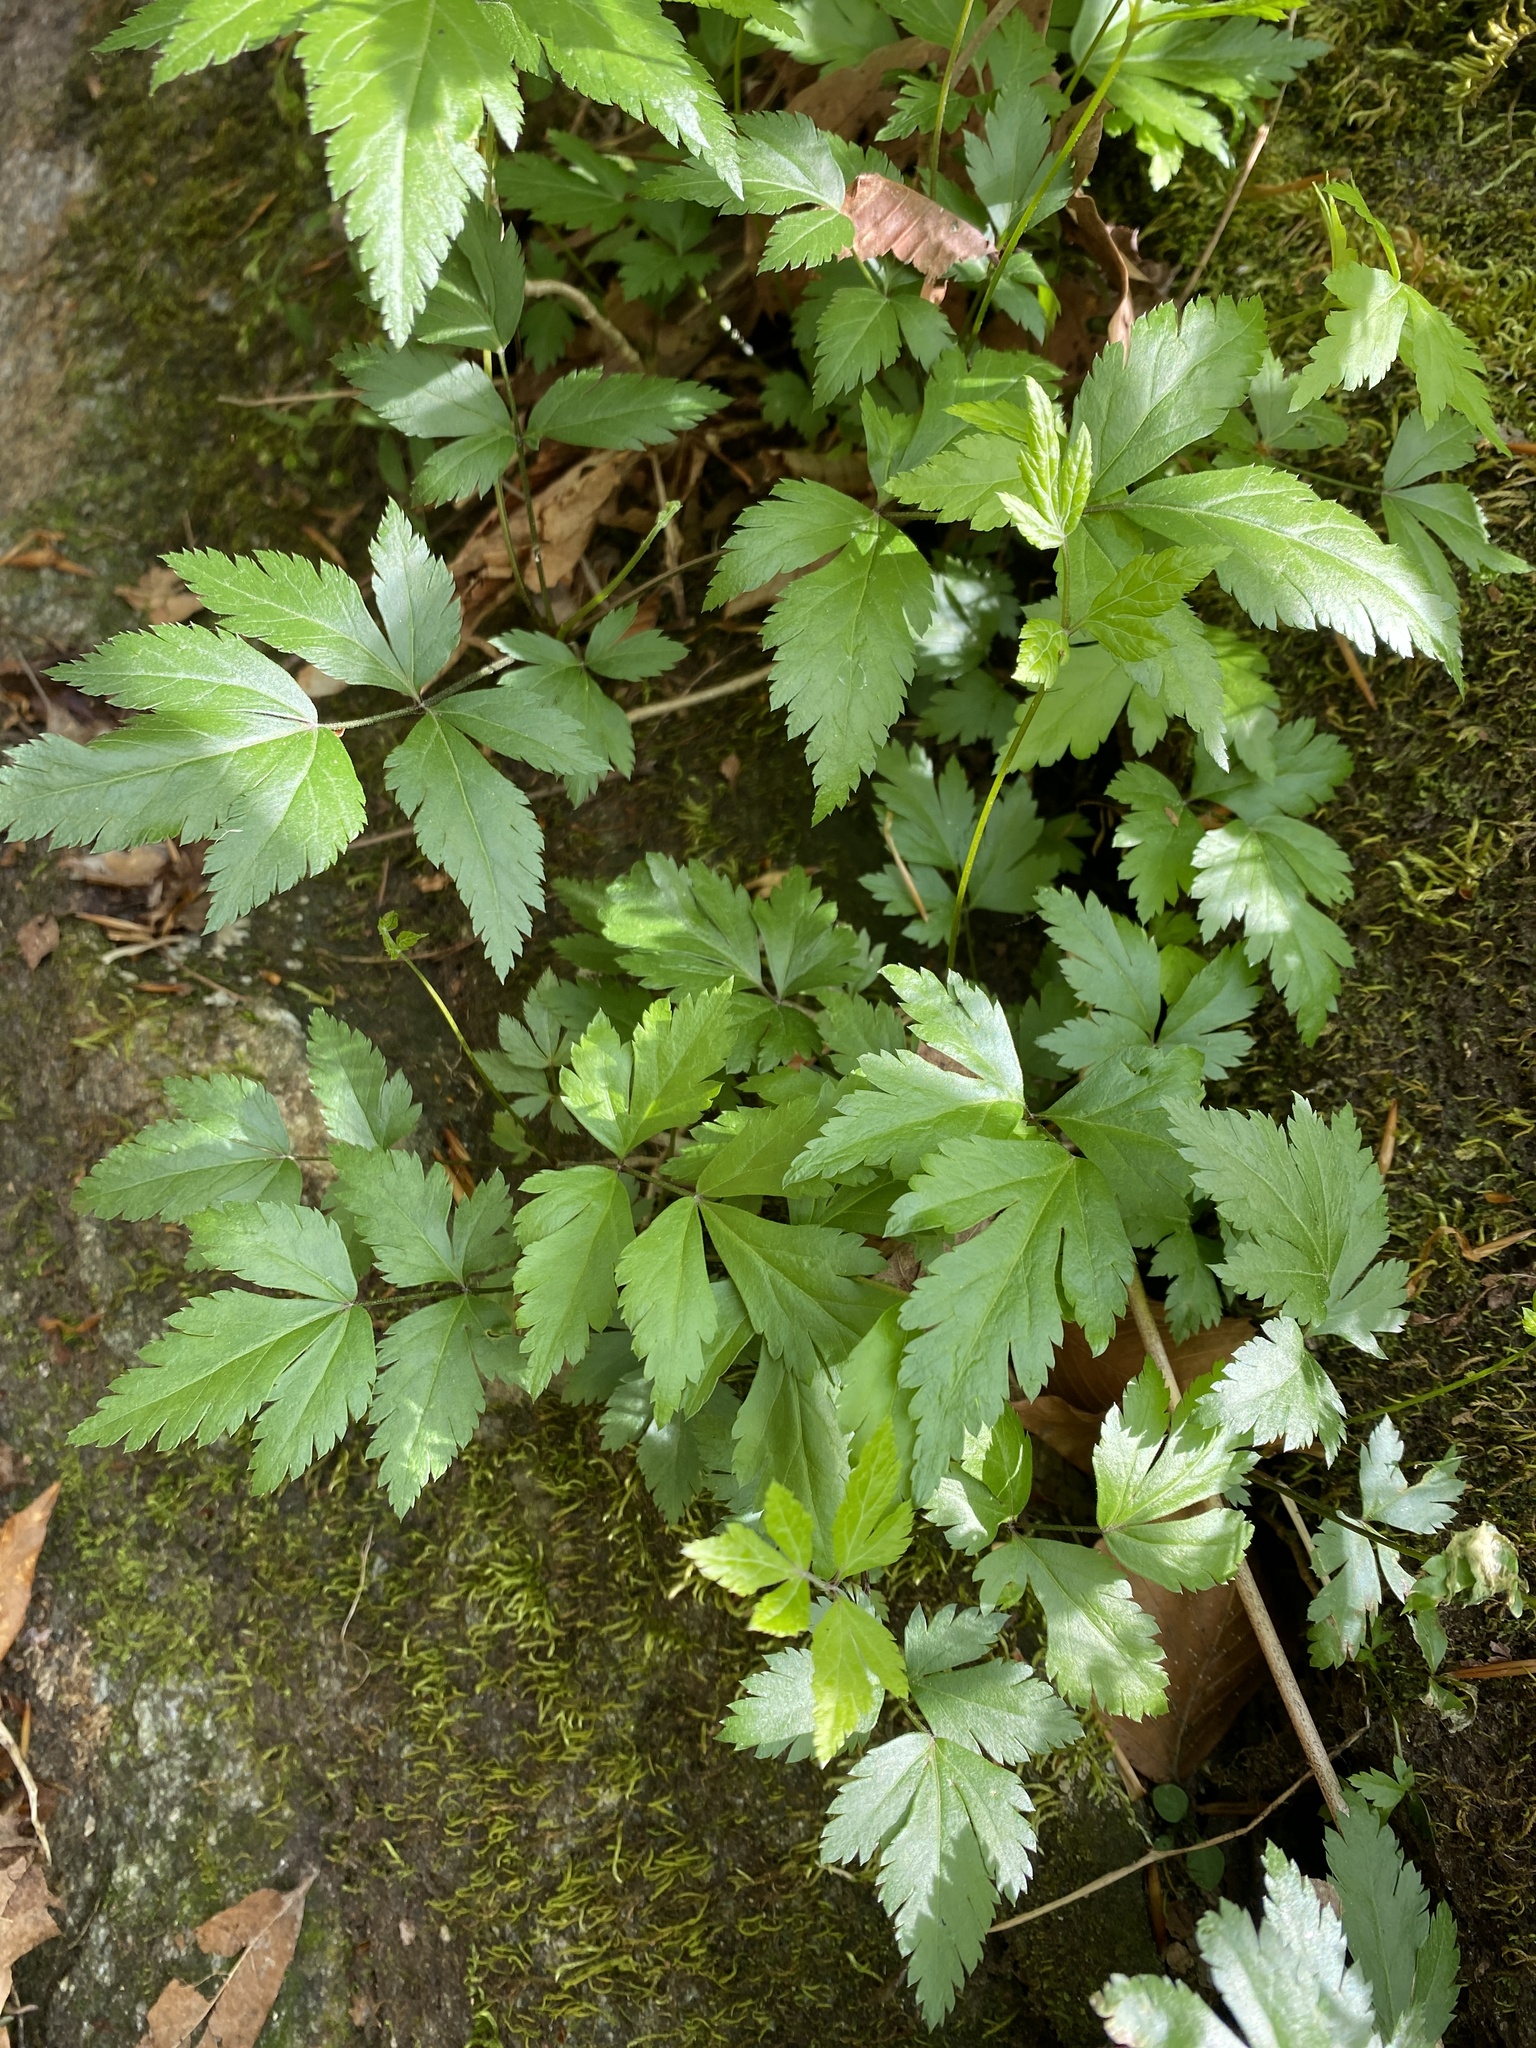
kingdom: Plantae
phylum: Tracheophyta
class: Magnoliopsida
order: Ranunculales
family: Ranunculaceae
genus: Xanthorhiza
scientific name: Xanthorhiza simplicissima
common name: Yellowroot
